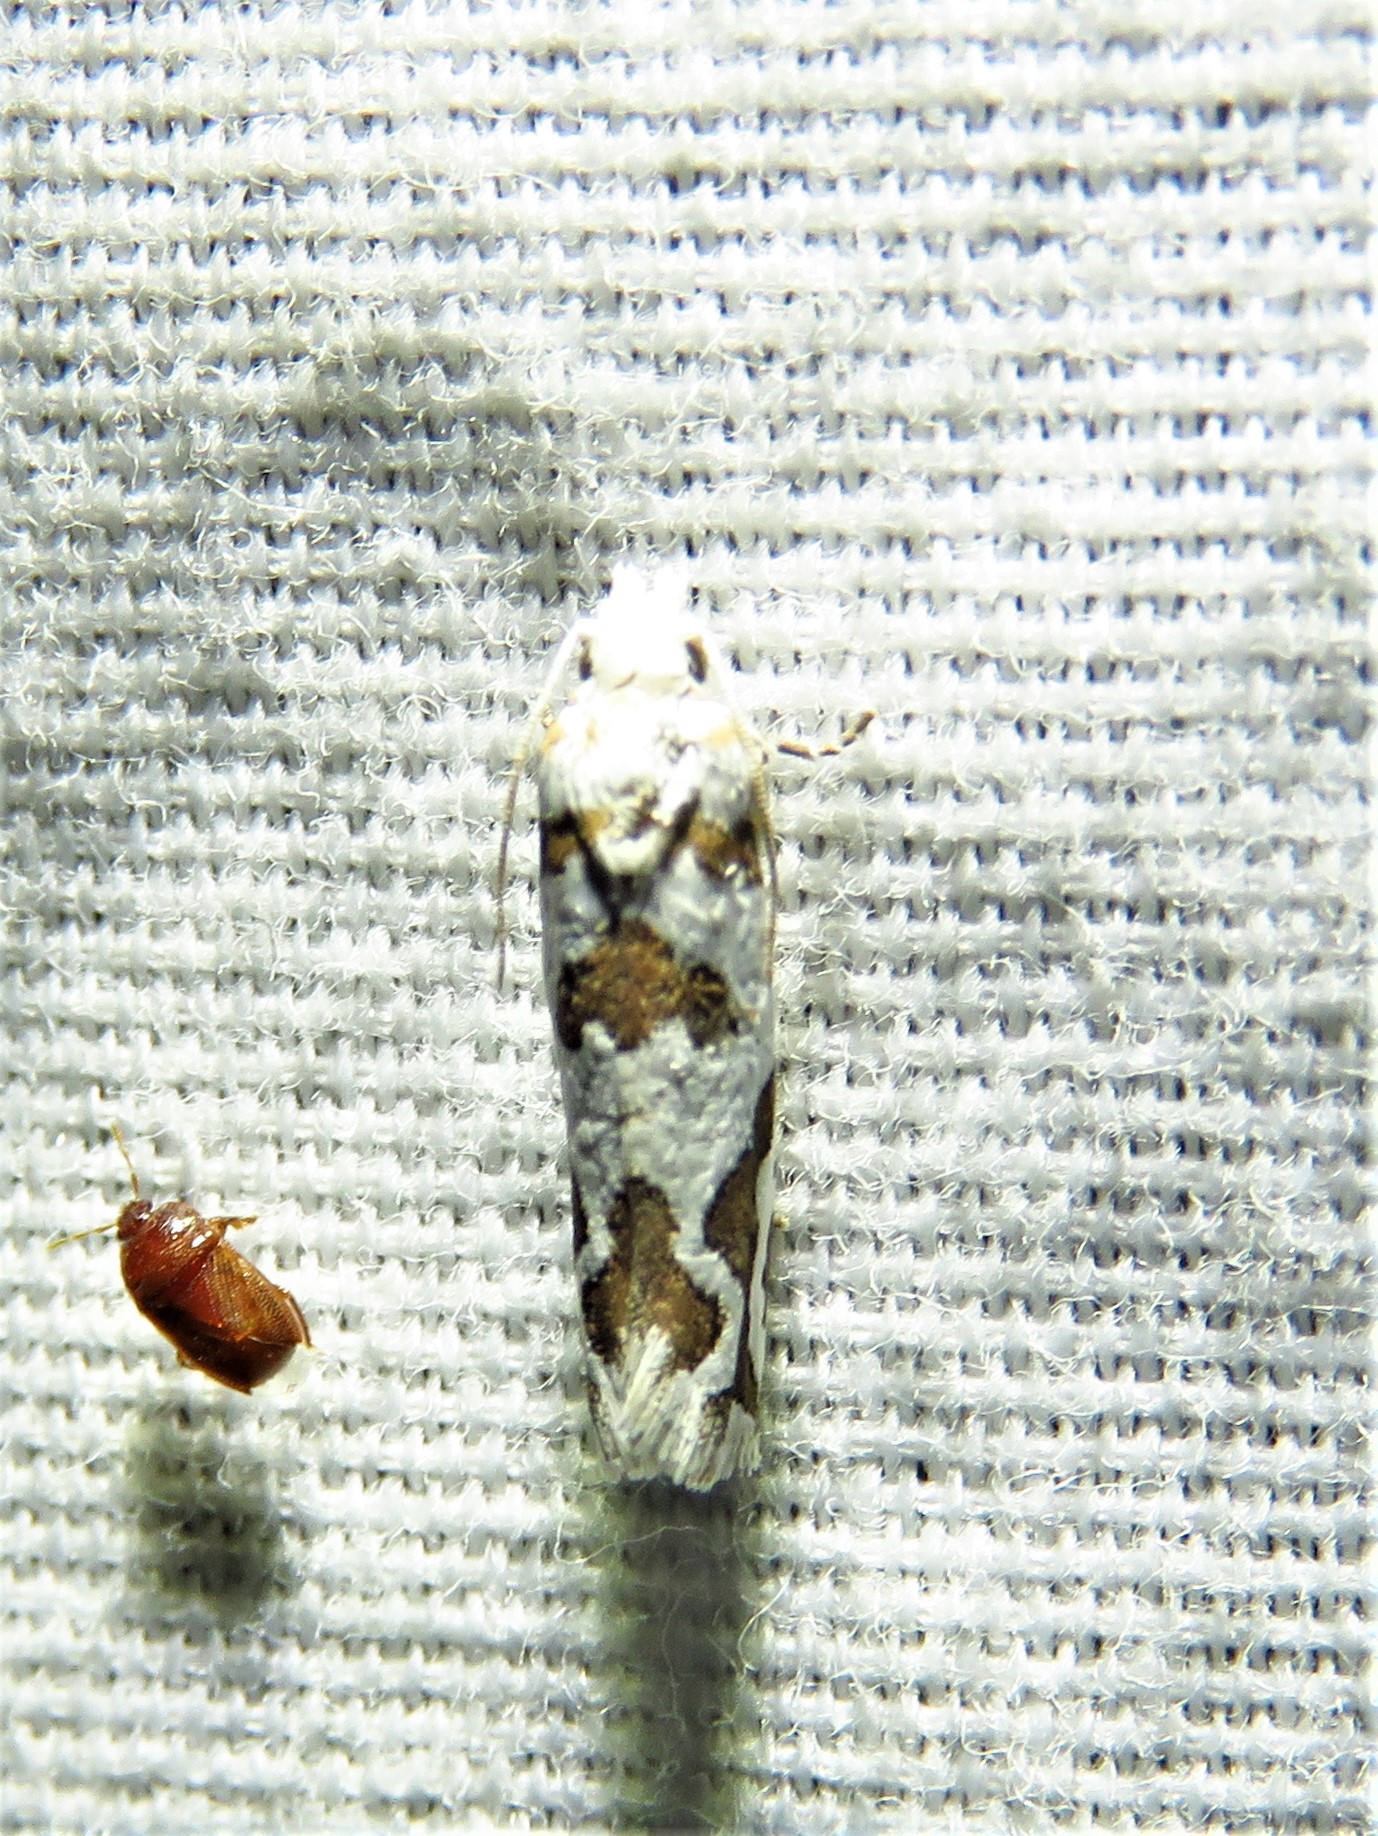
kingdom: Animalia
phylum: Arthropoda
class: Insecta
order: Lepidoptera
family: Tortricidae
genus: Pelochrista
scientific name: Pelochrista bolanderana
